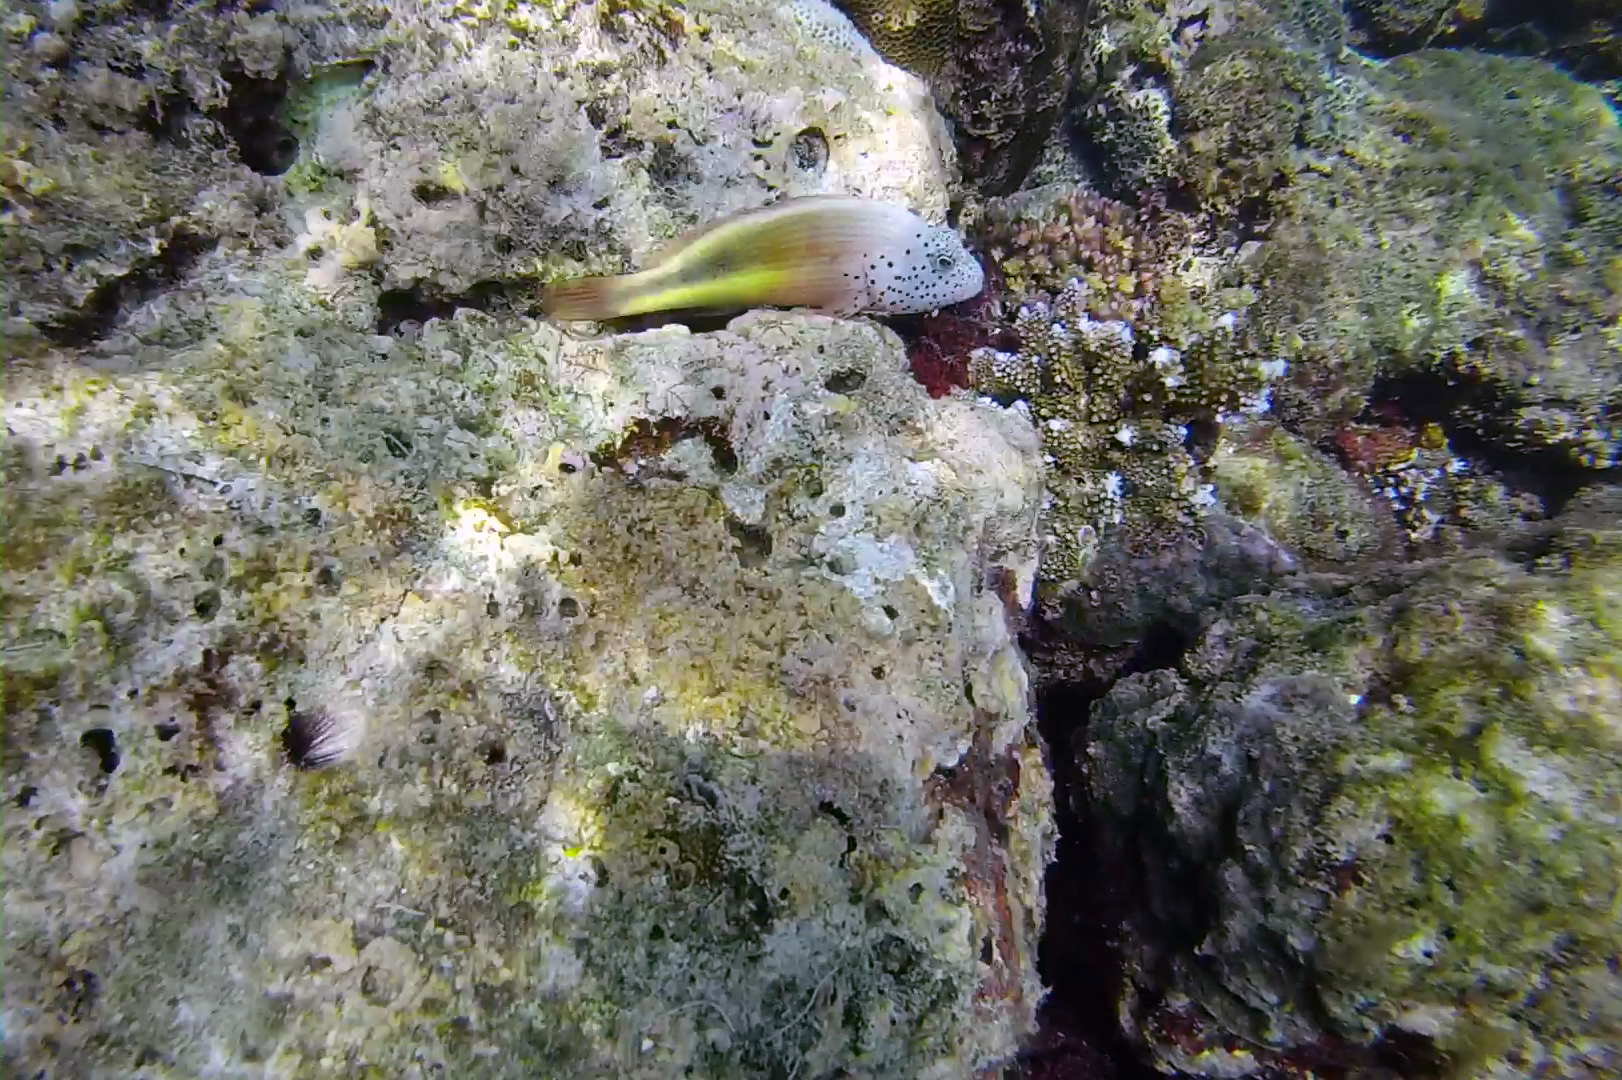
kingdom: Animalia
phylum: Chordata
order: Perciformes
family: Cirrhitidae
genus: Paracirrhites
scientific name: Paracirrhites forsteri
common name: Freckled hawkfish
